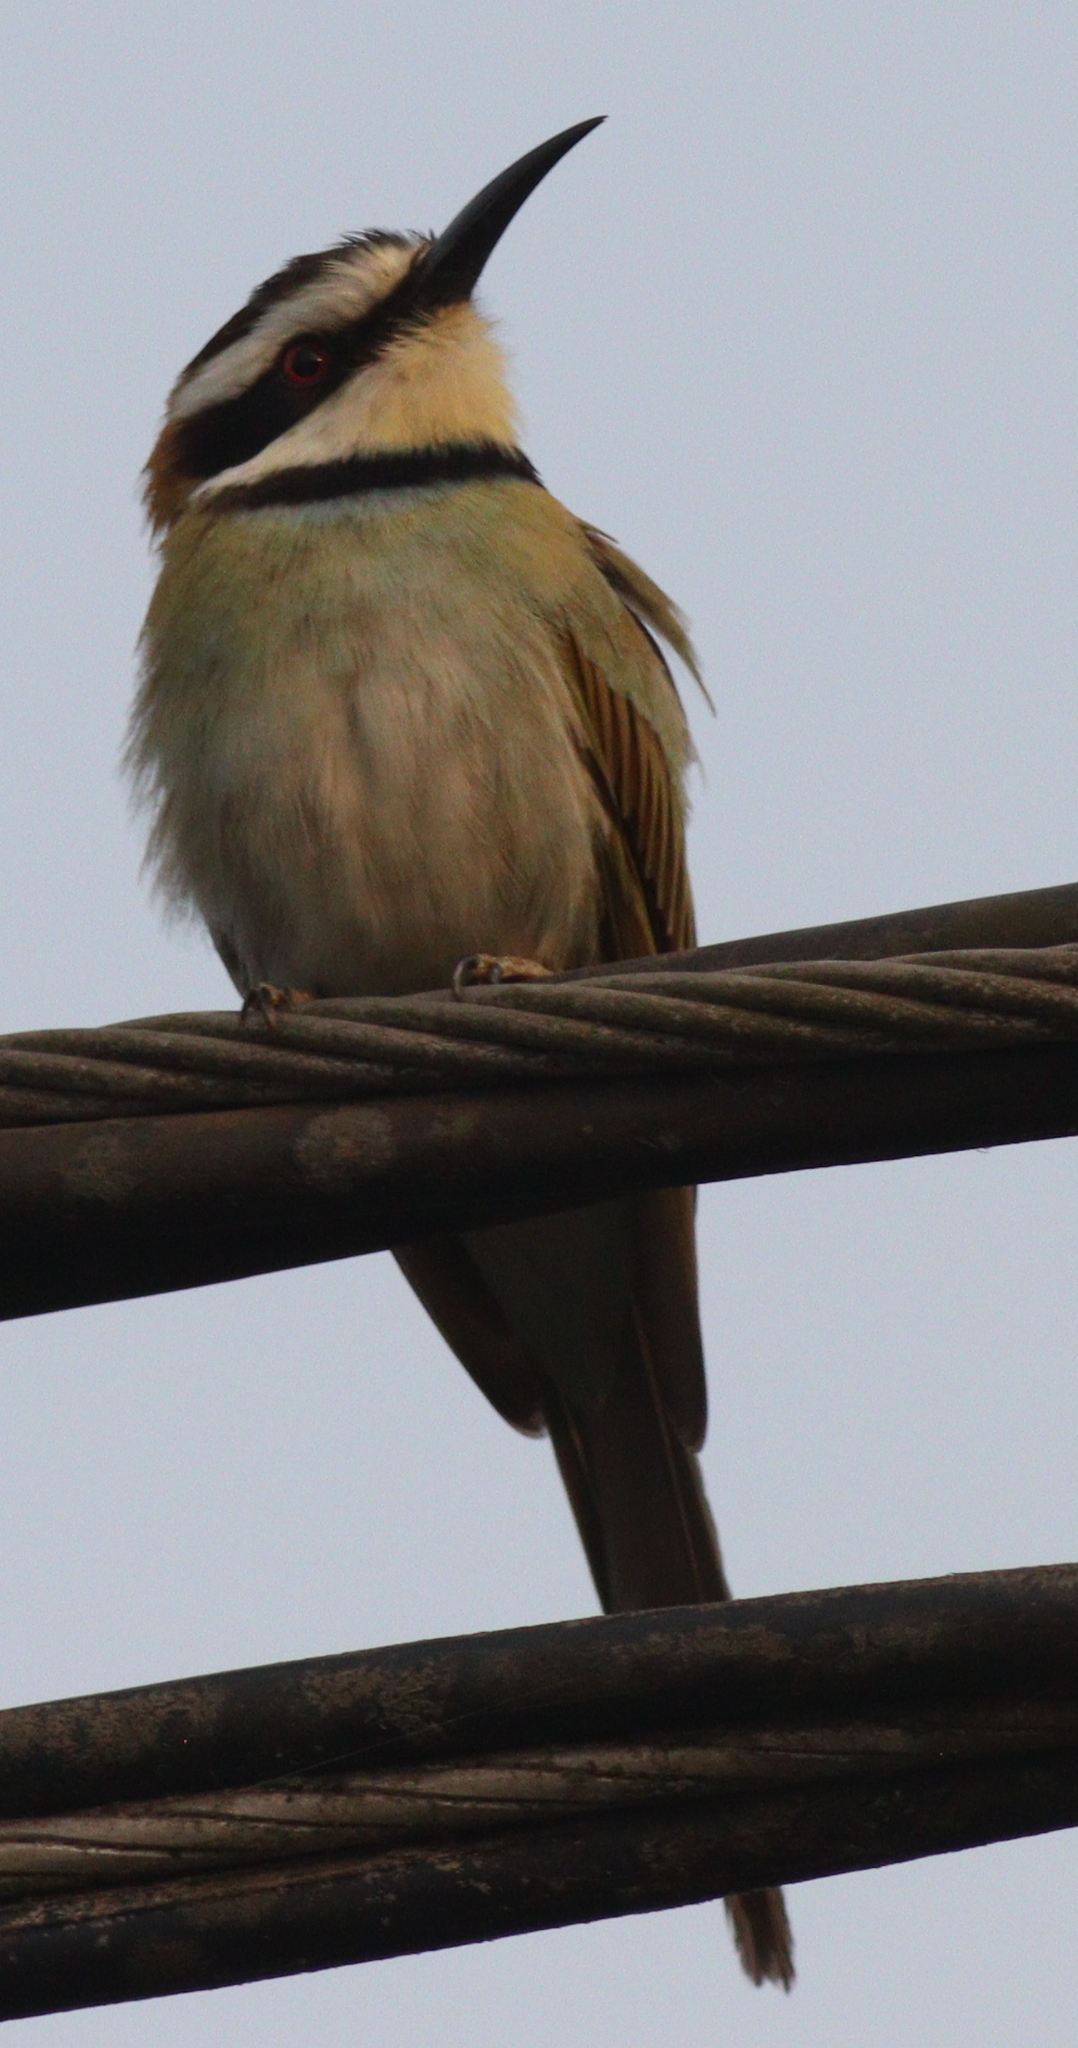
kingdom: Animalia
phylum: Chordata
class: Aves
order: Coraciiformes
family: Meropidae
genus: Merops
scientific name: Merops albicollis
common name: White-throated bee-eater
